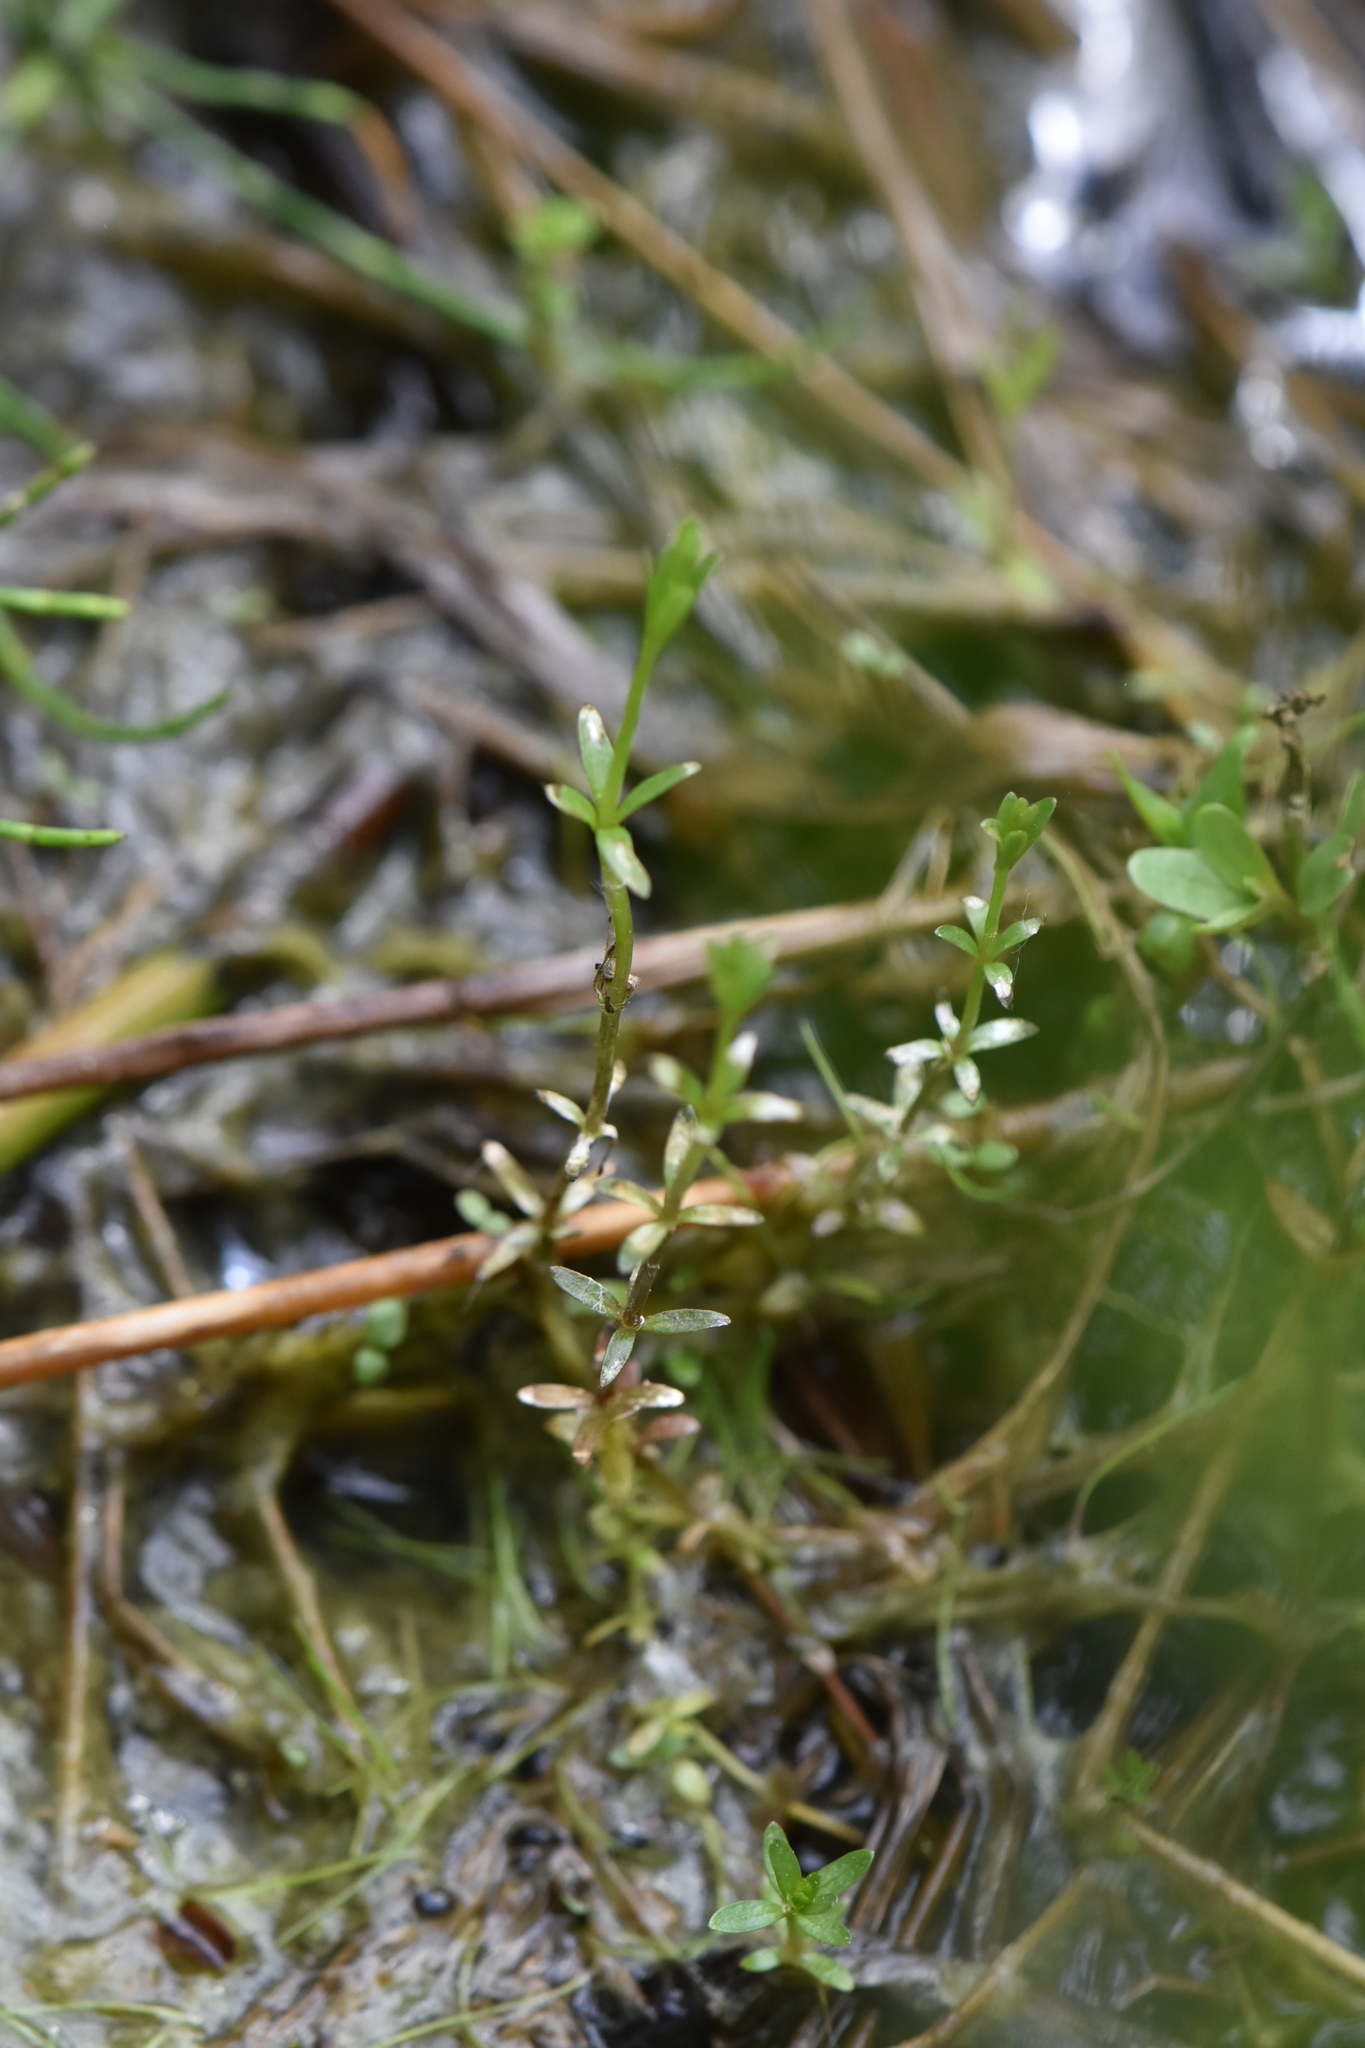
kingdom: Plantae
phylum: Tracheophyta
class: Magnoliopsida
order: Gentianales
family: Rubiaceae
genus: Galium
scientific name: Galium palustre
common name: Common marsh-bedstraw
